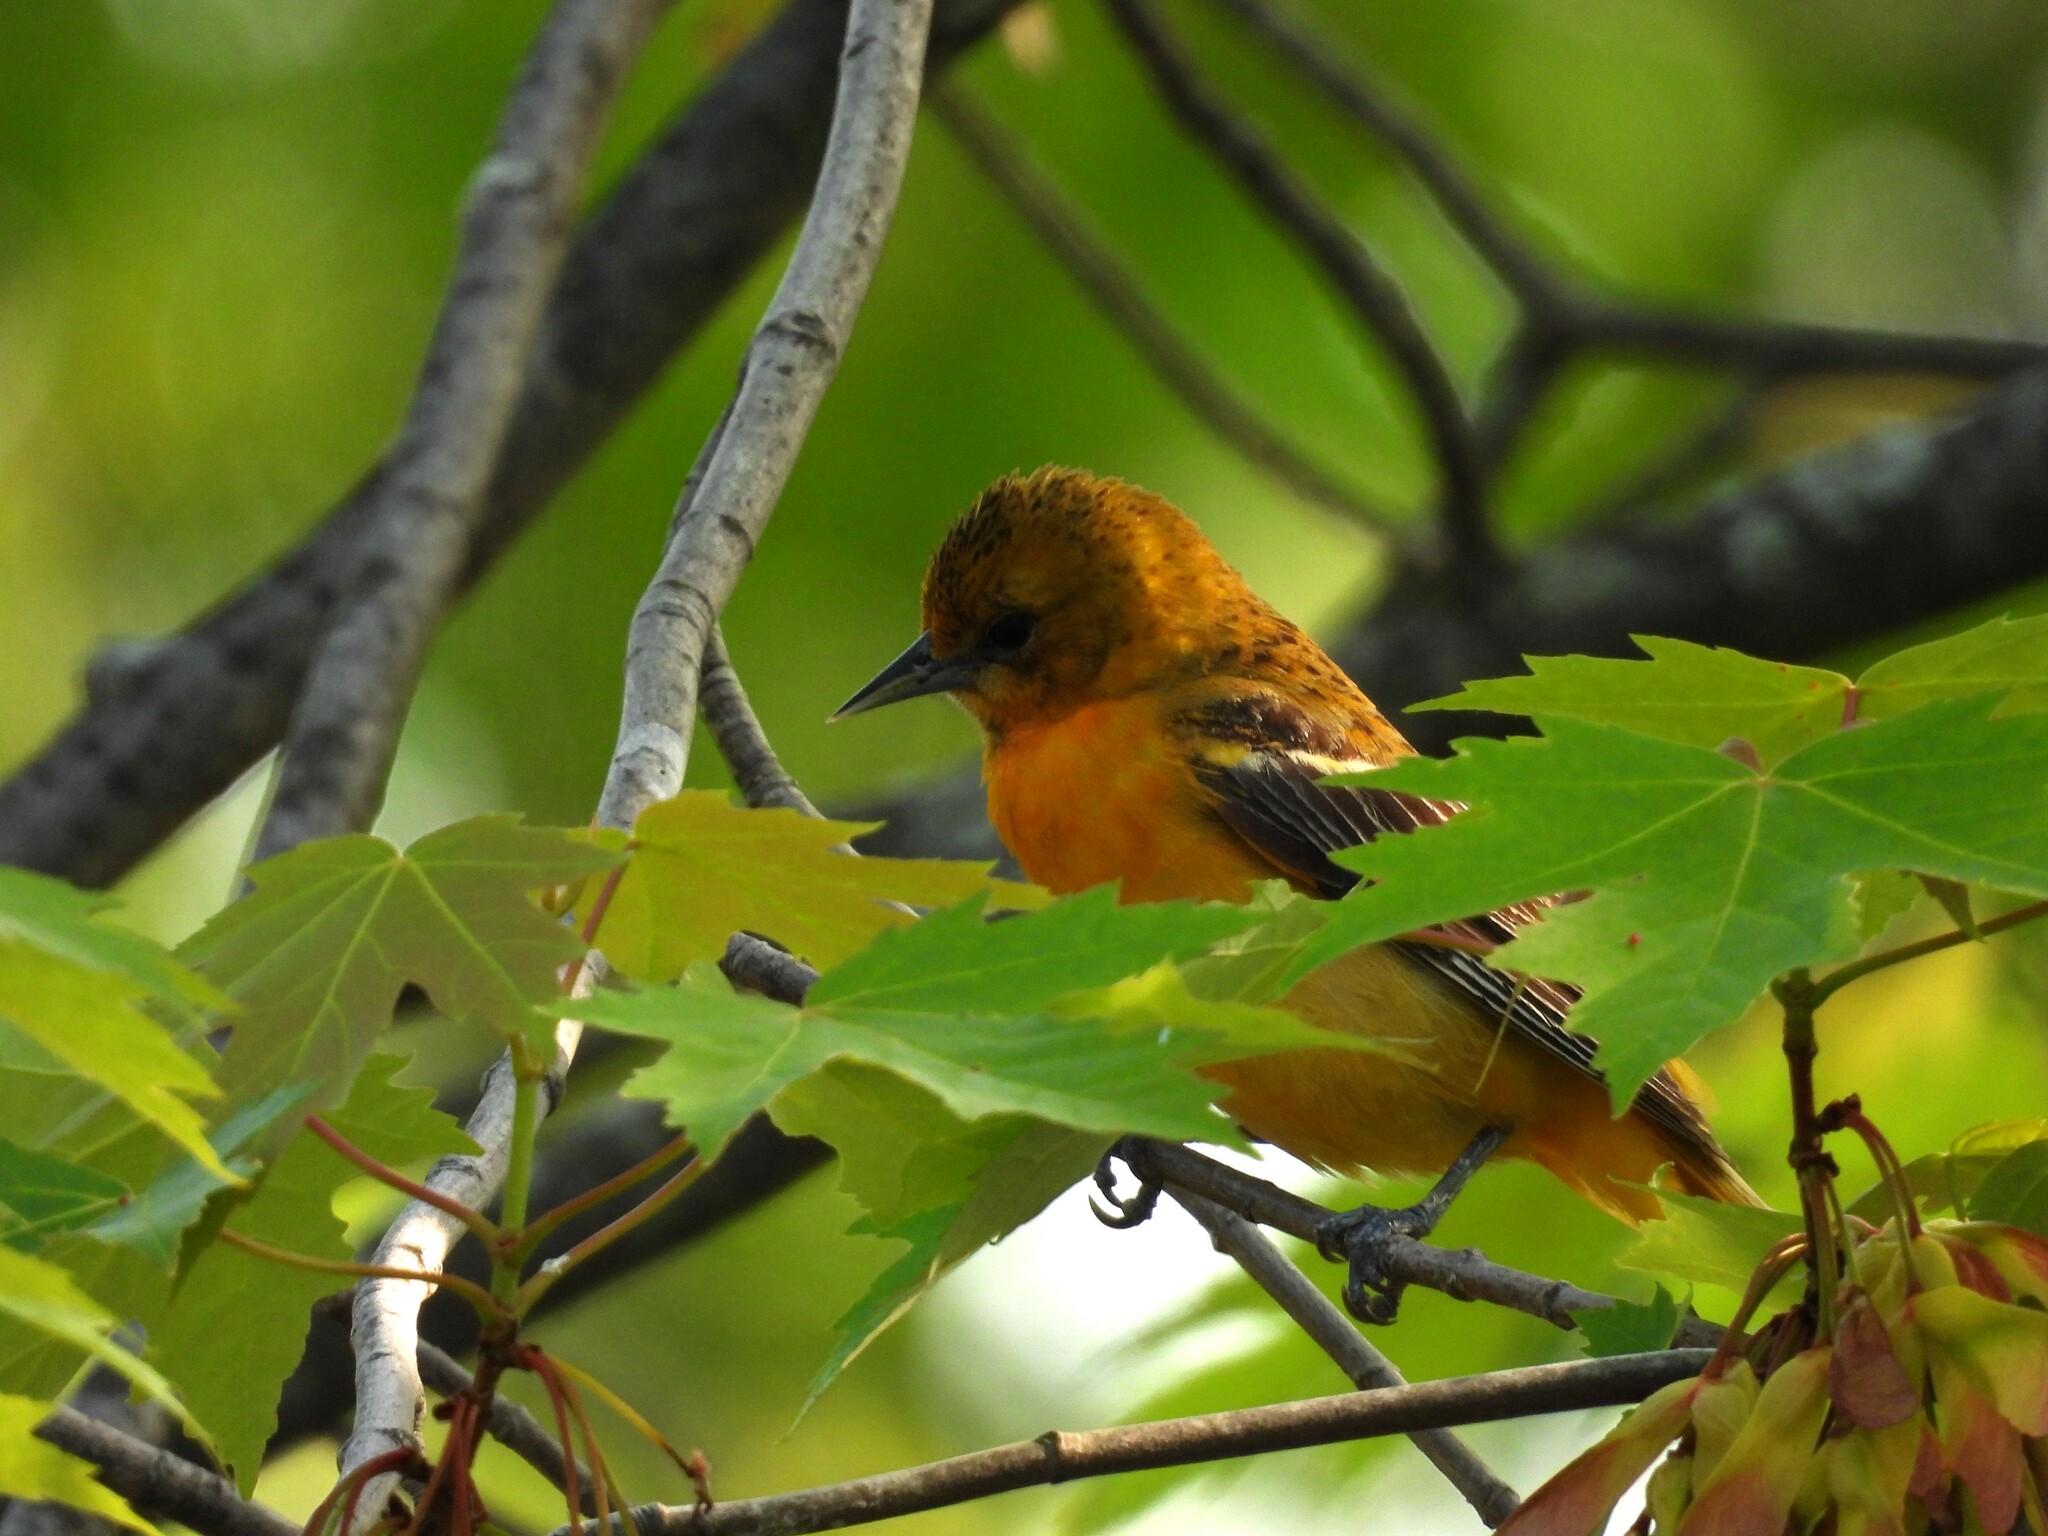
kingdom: Animalia
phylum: Chordata
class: Aves
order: Passeriformes
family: Icteridae
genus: Icterus
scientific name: Icterus galbula
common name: Baltimore oriole
